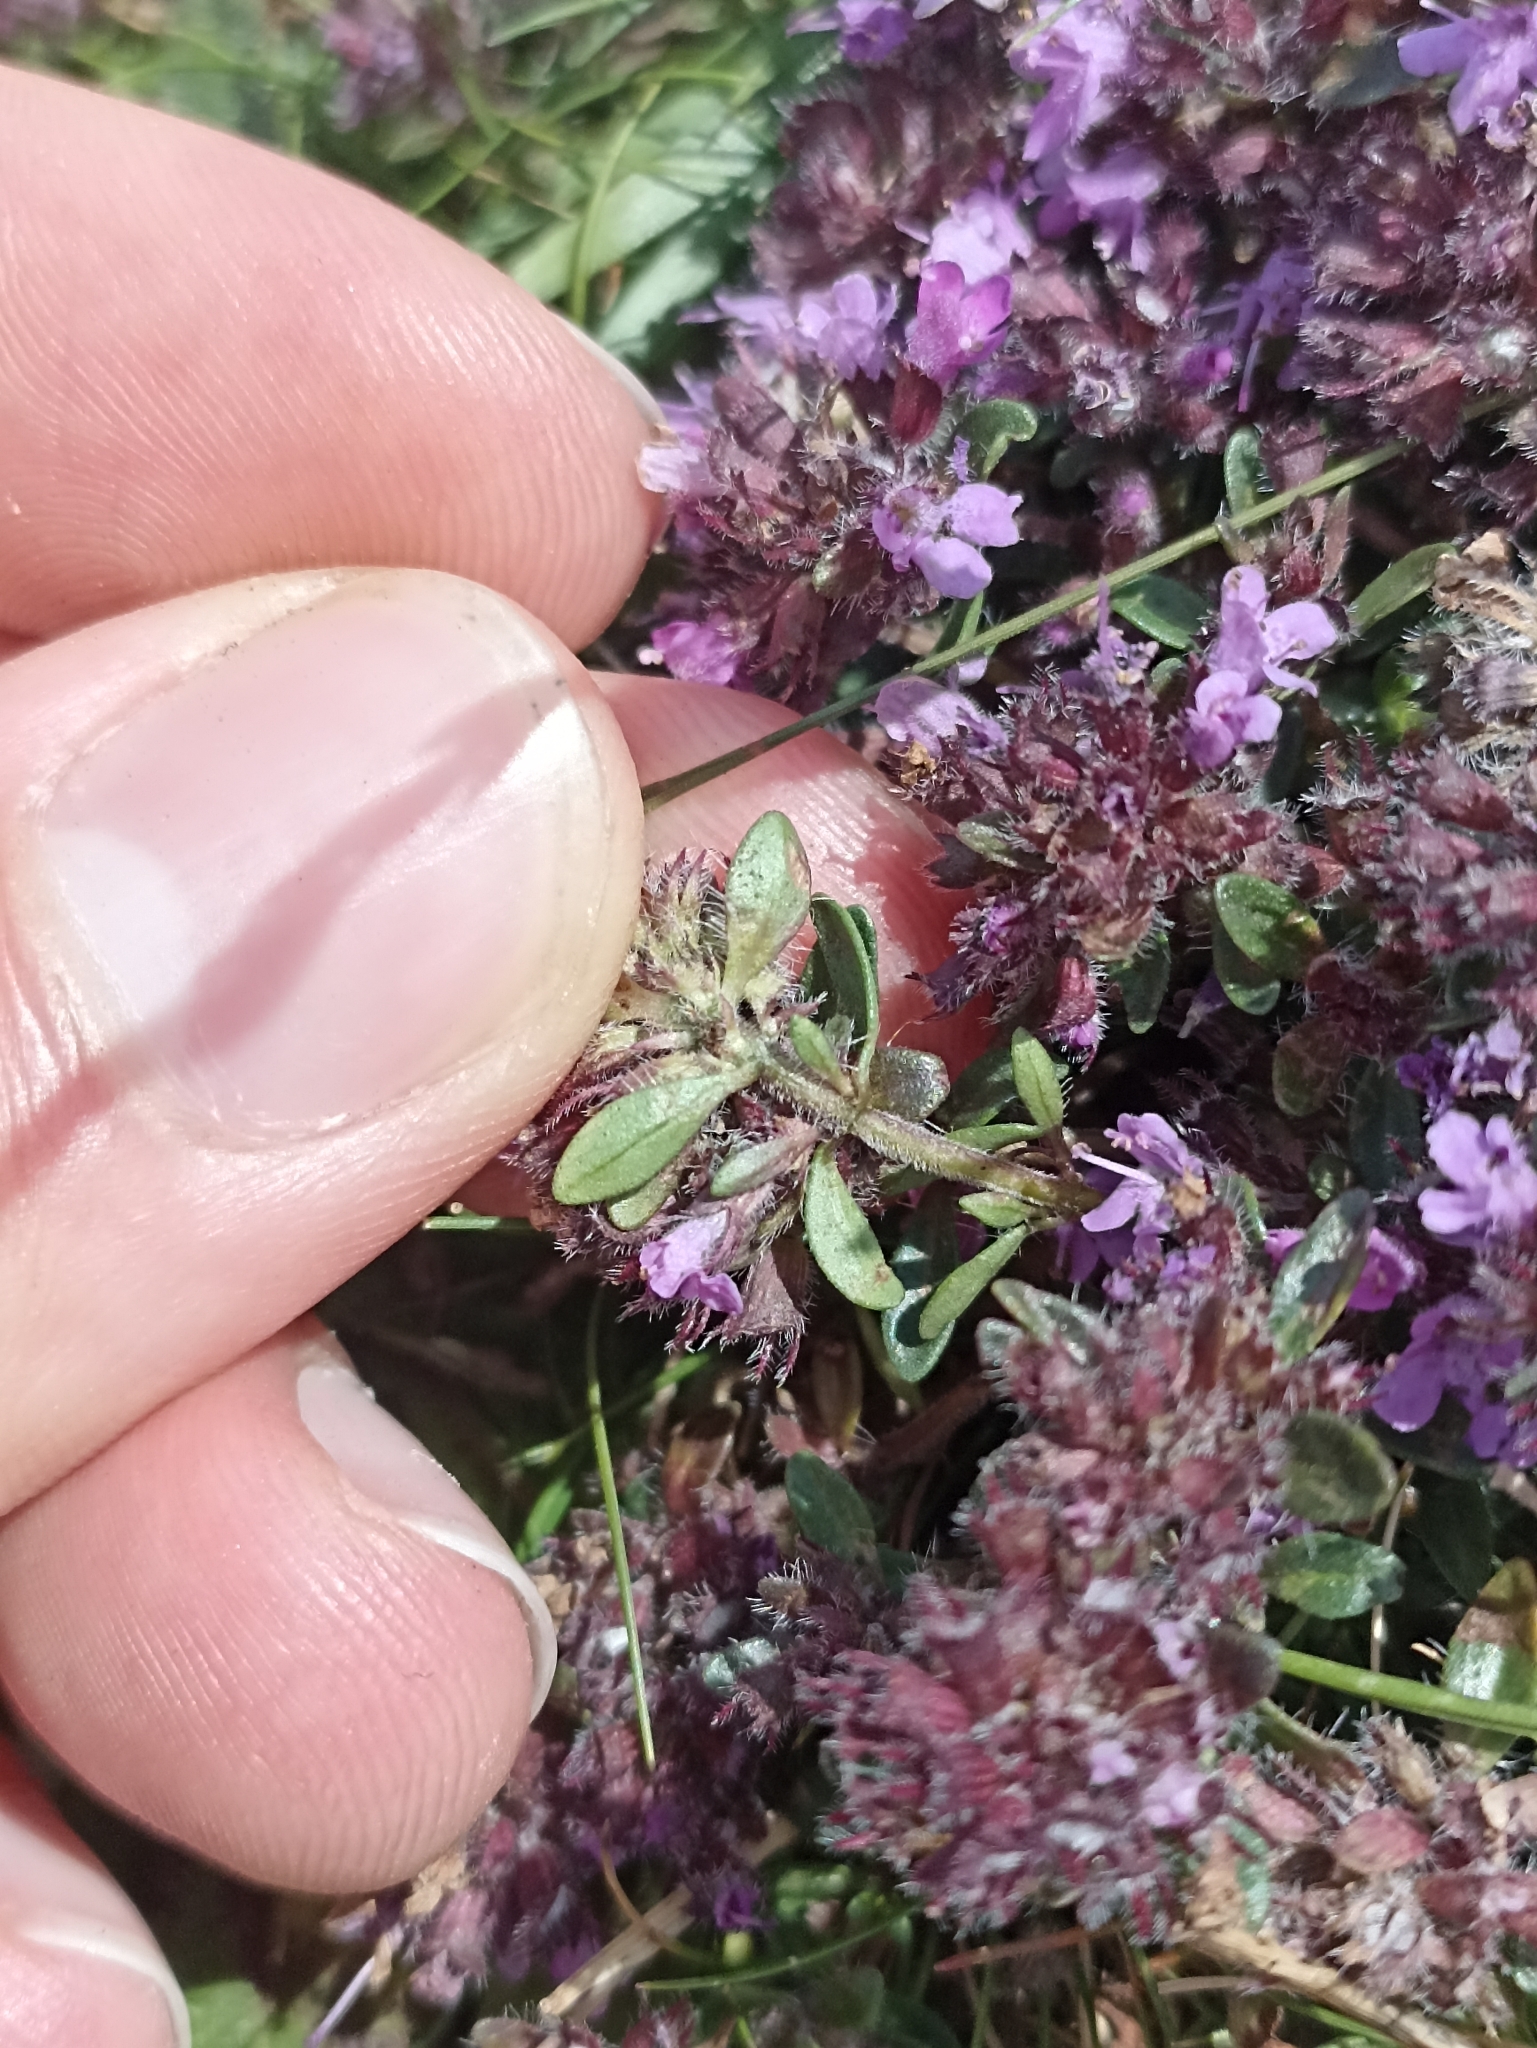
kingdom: Plantae
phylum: Tracheophyta
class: Magnoliopsida
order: Lamiales
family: Lamiaceae
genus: Thymus
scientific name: Thymus praecox
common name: Wild thyme
